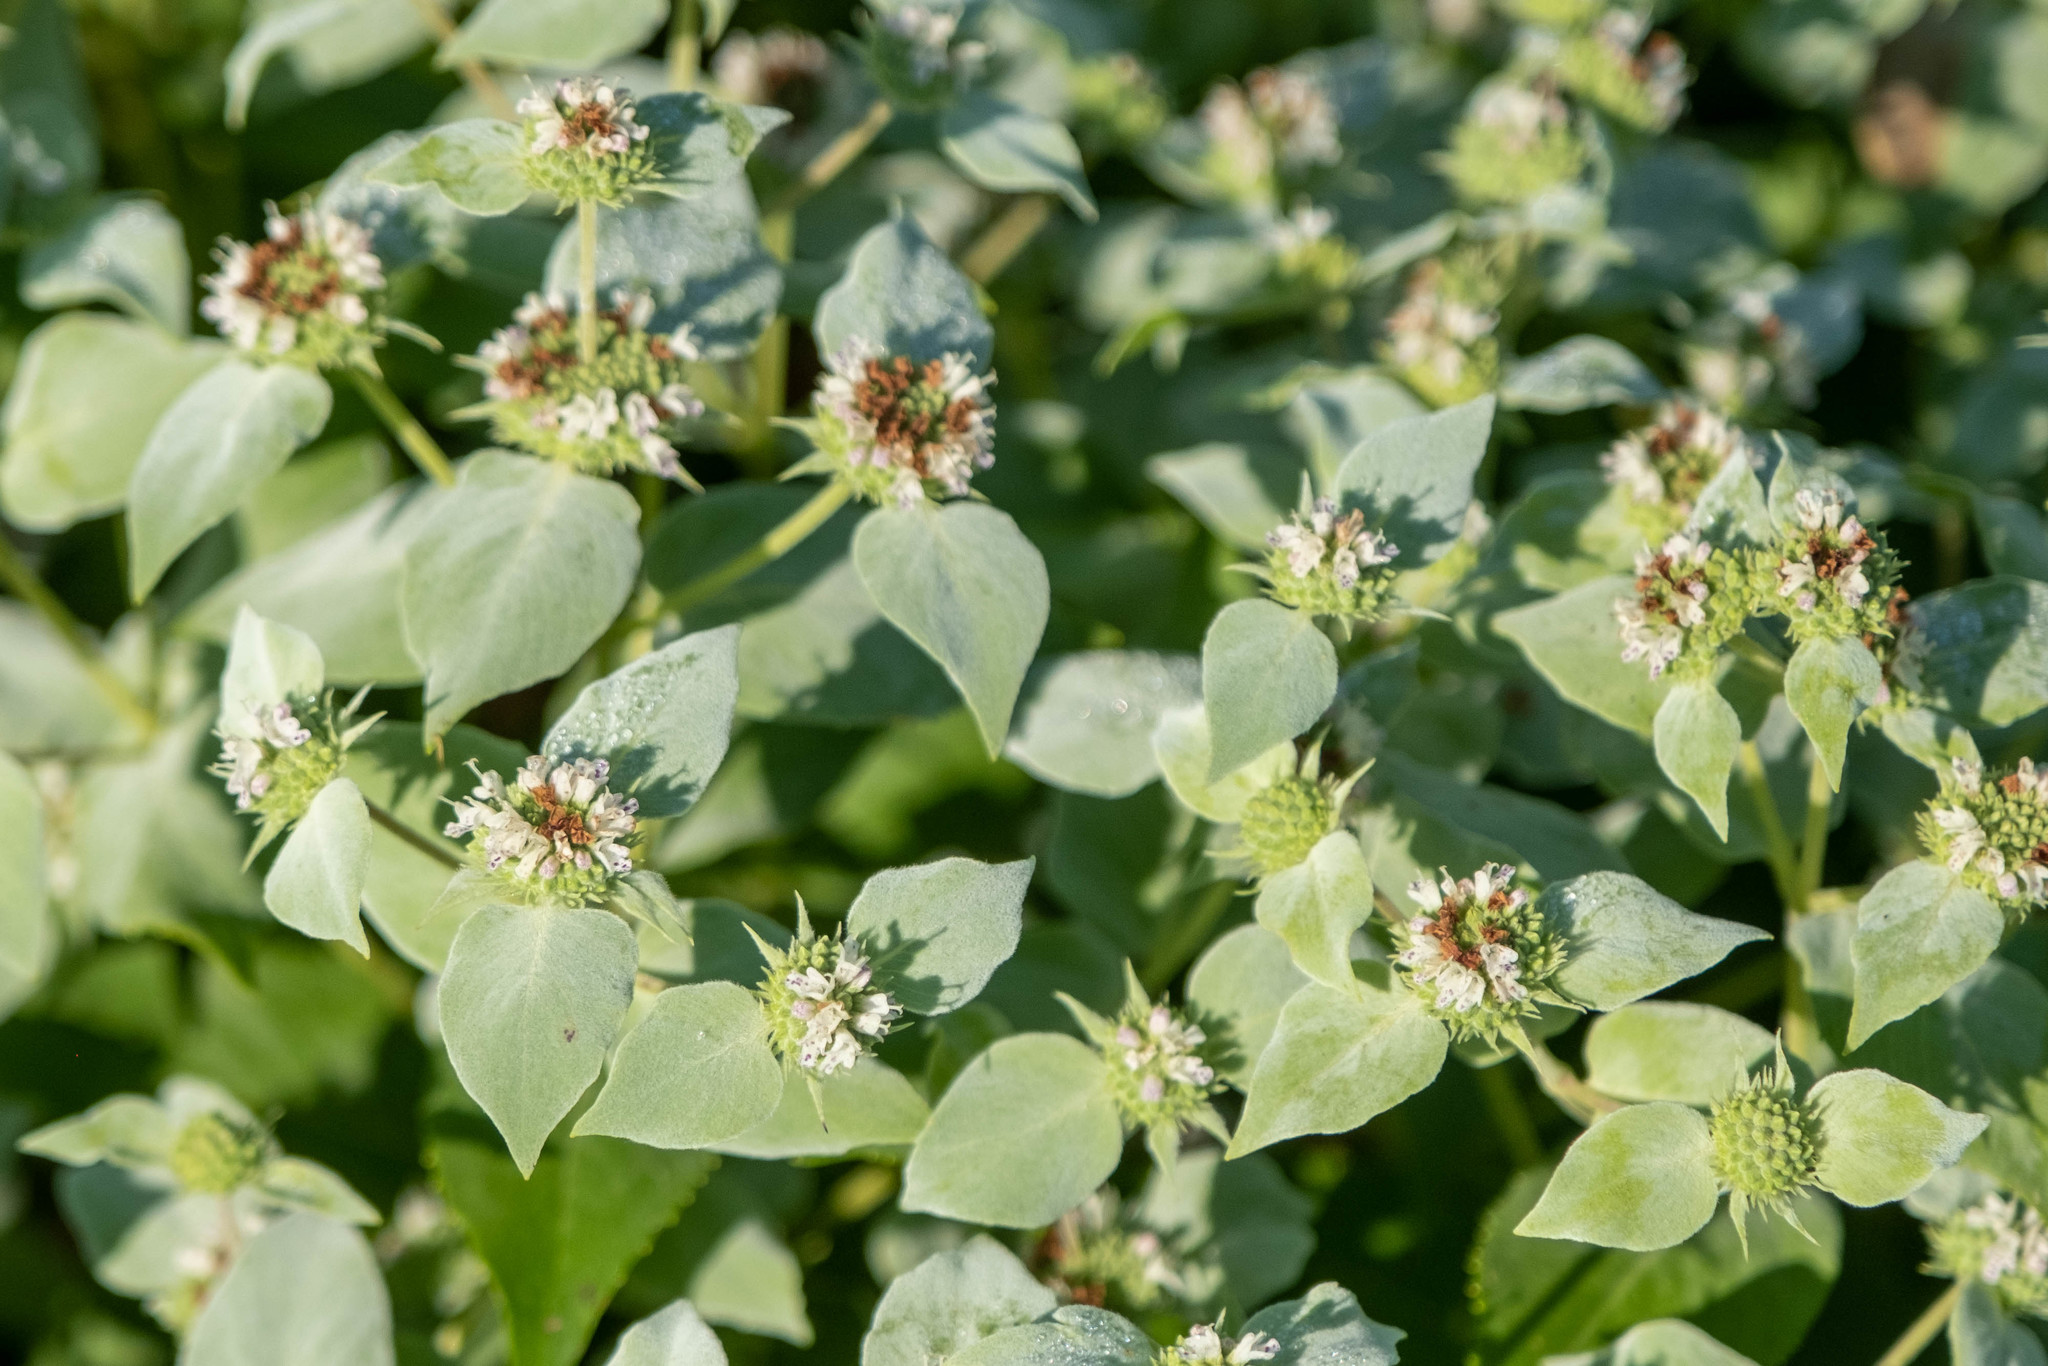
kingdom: Plantae
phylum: Tracheophyta
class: Magnoliopsida
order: Lamiales
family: Lamiaceae
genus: Pycnanthemum
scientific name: Pycnanthemum muticum
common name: Blunt mountain-mint
